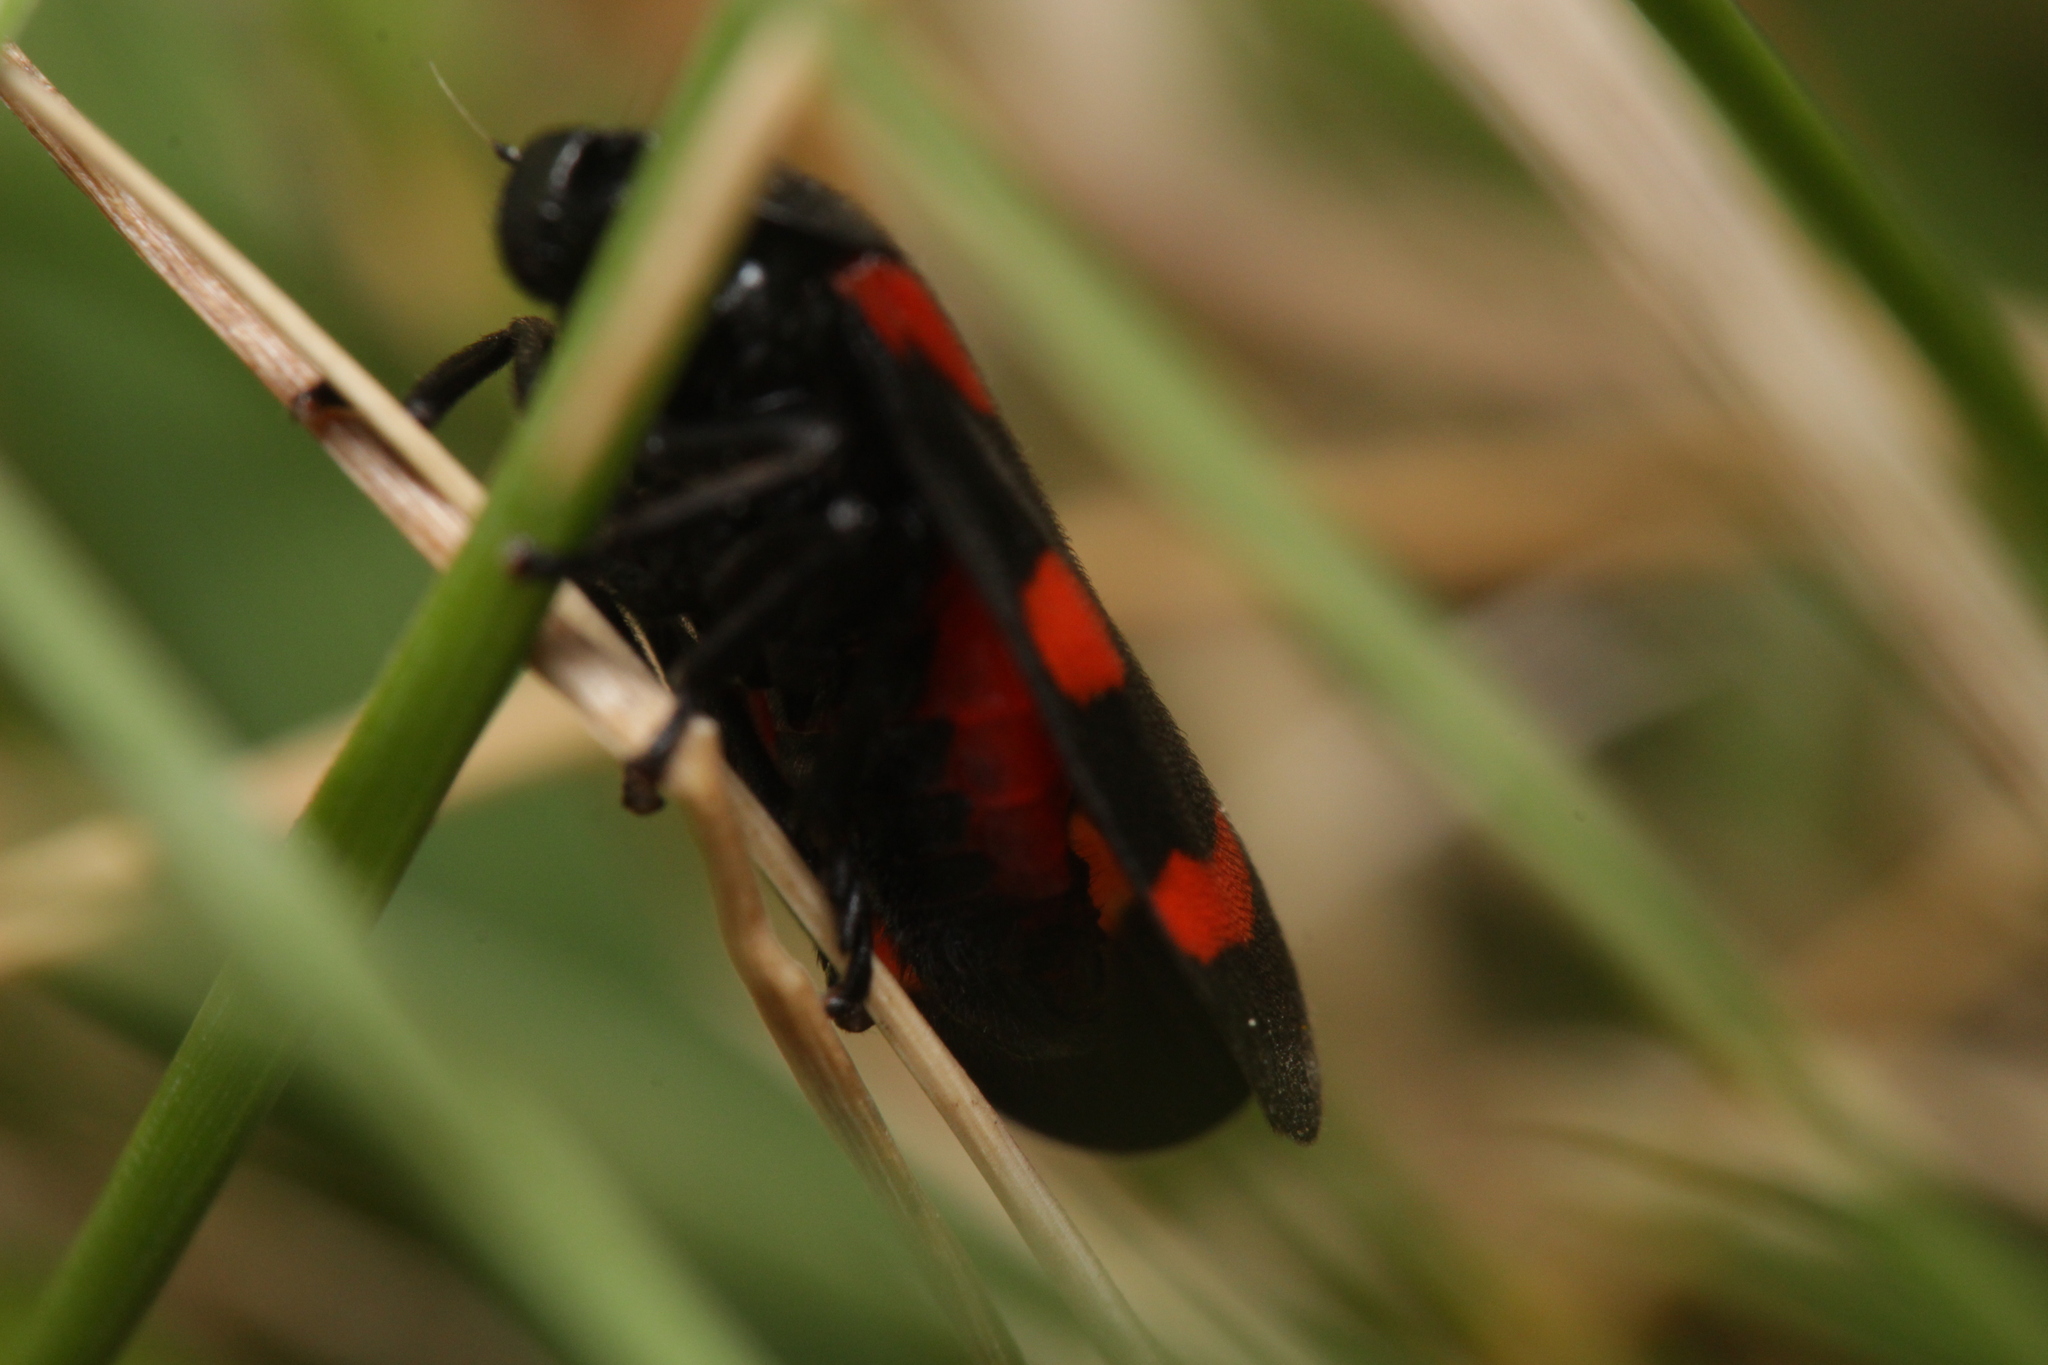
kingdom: Animalia
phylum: Arthropoda
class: Insecta
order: Hemiptera
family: Cercopidae
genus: Cercopis
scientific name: Cercopis arcuata
